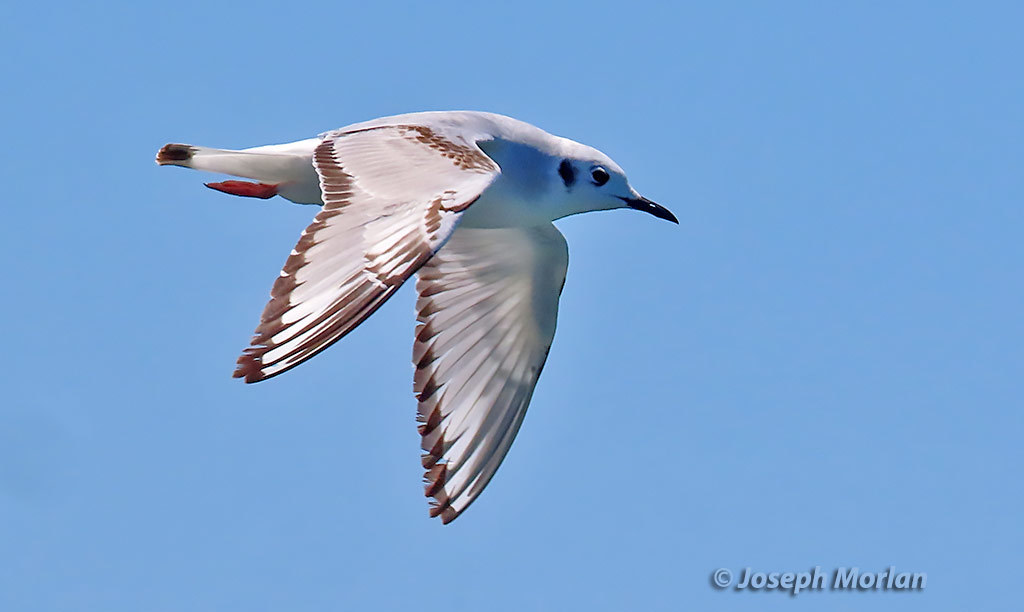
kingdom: Animalia
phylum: Chordata
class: Aves
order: Charadriiformes
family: Laridae
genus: Chroicocephalus
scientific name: Chroicocephalus philadelphia
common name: Bonaparte's gull
